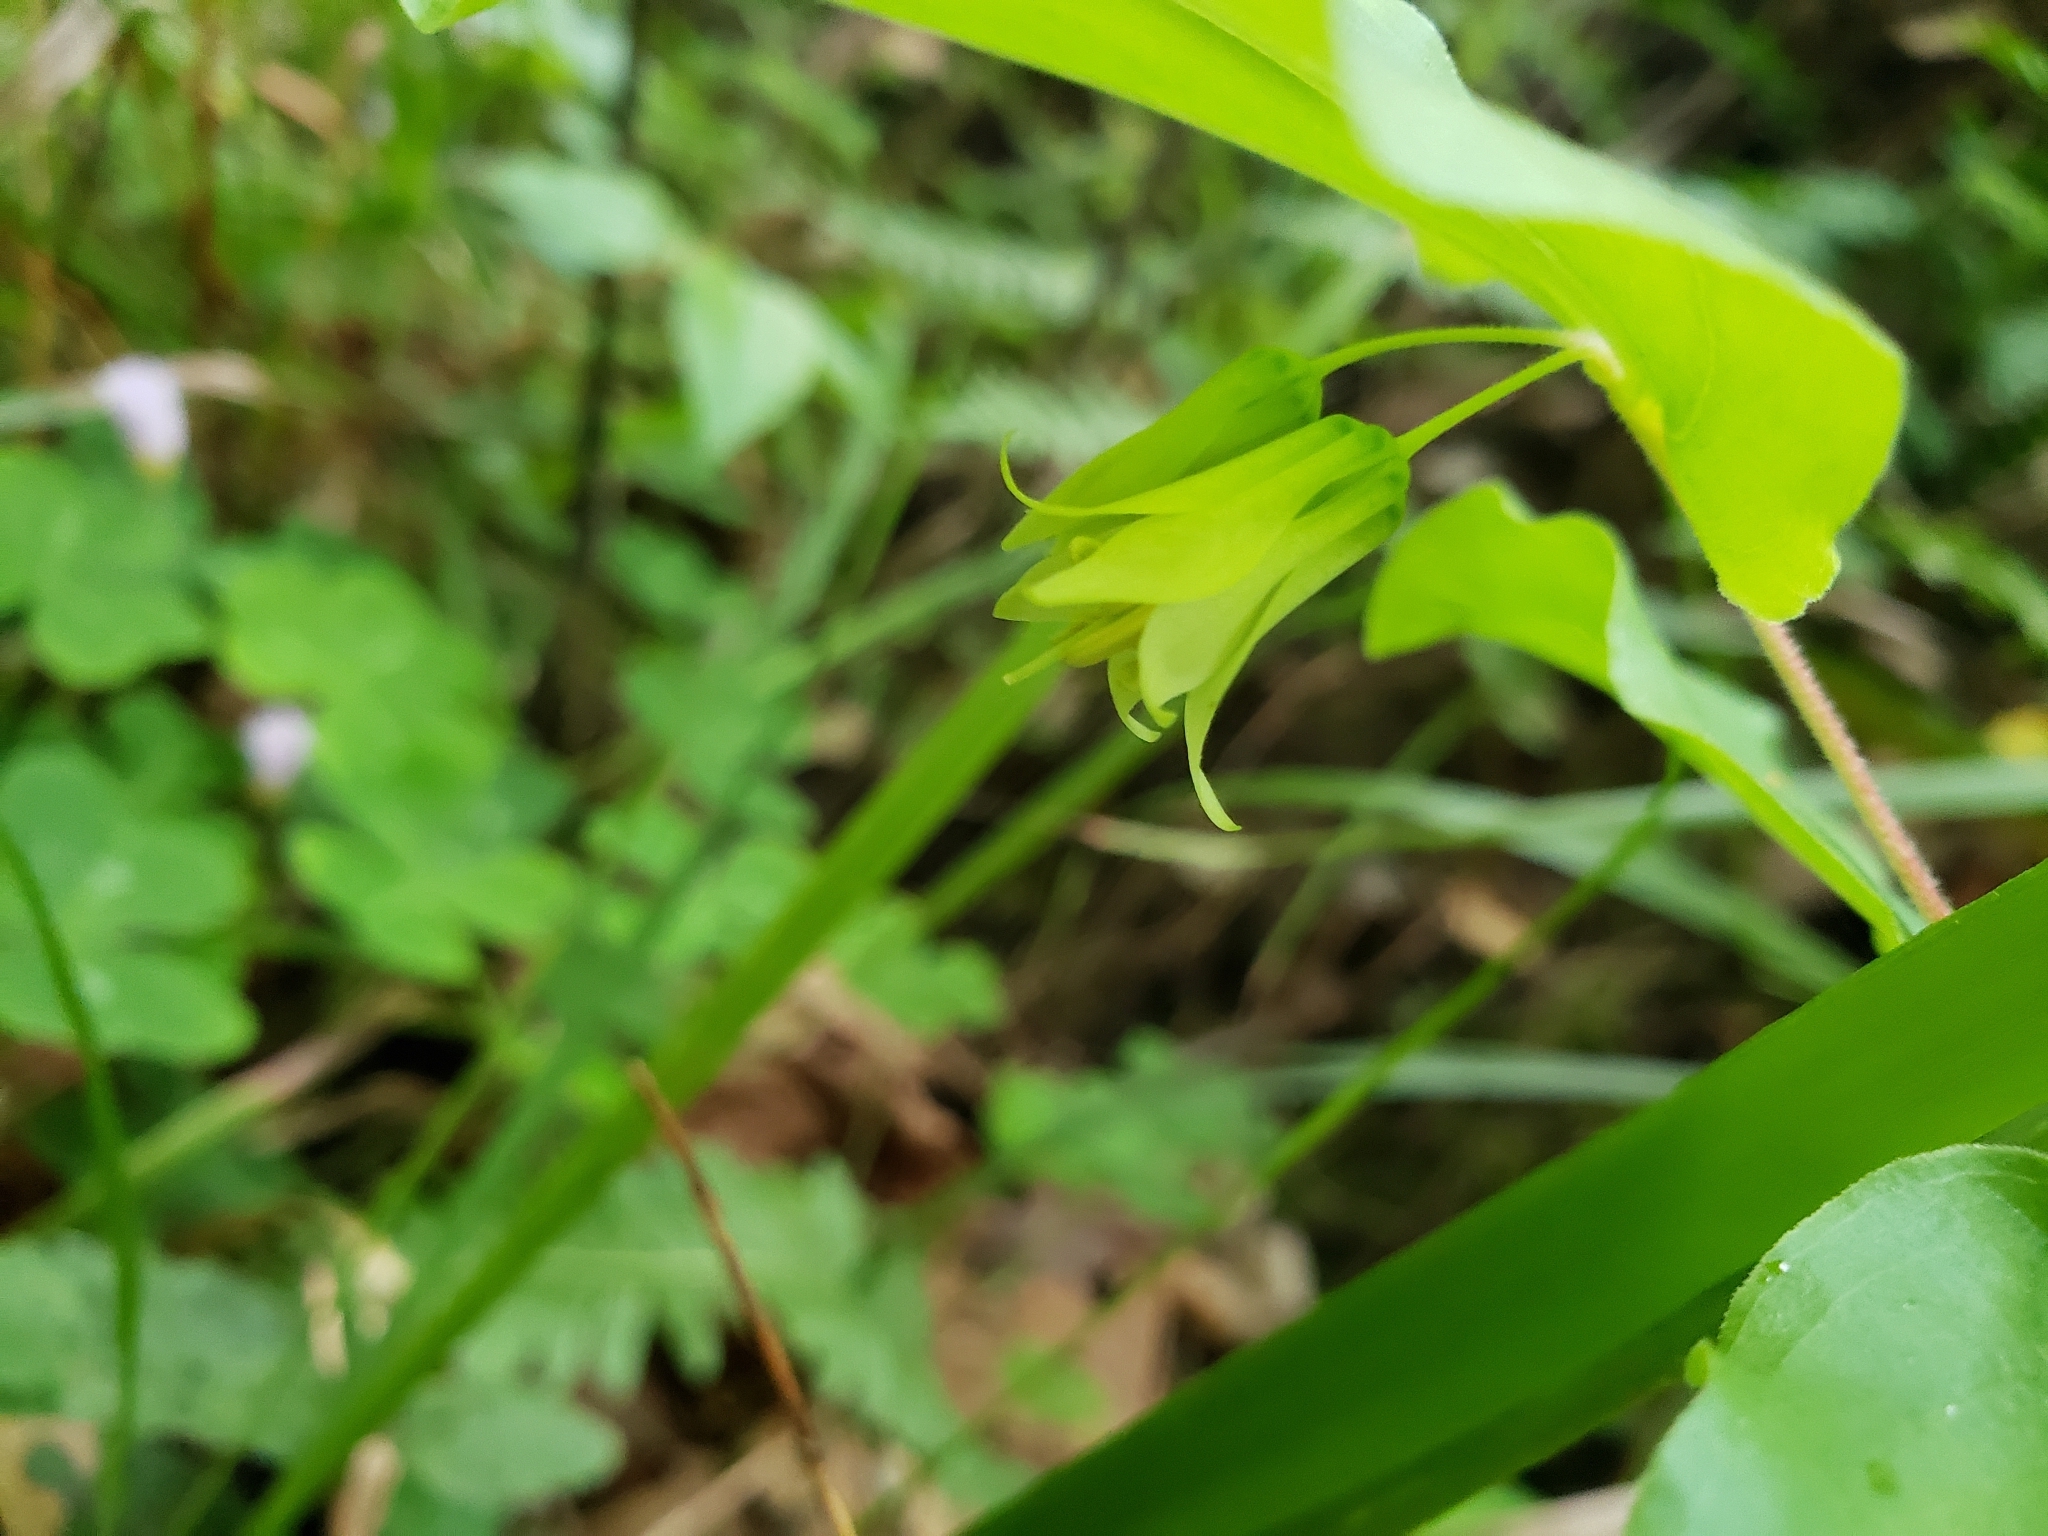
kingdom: Plantae
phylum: Tracheophyta
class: Liliopsida
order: Liliales
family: Liliaceae
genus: Prosartes
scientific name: Prosartes hookeri
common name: Fairy-bells
